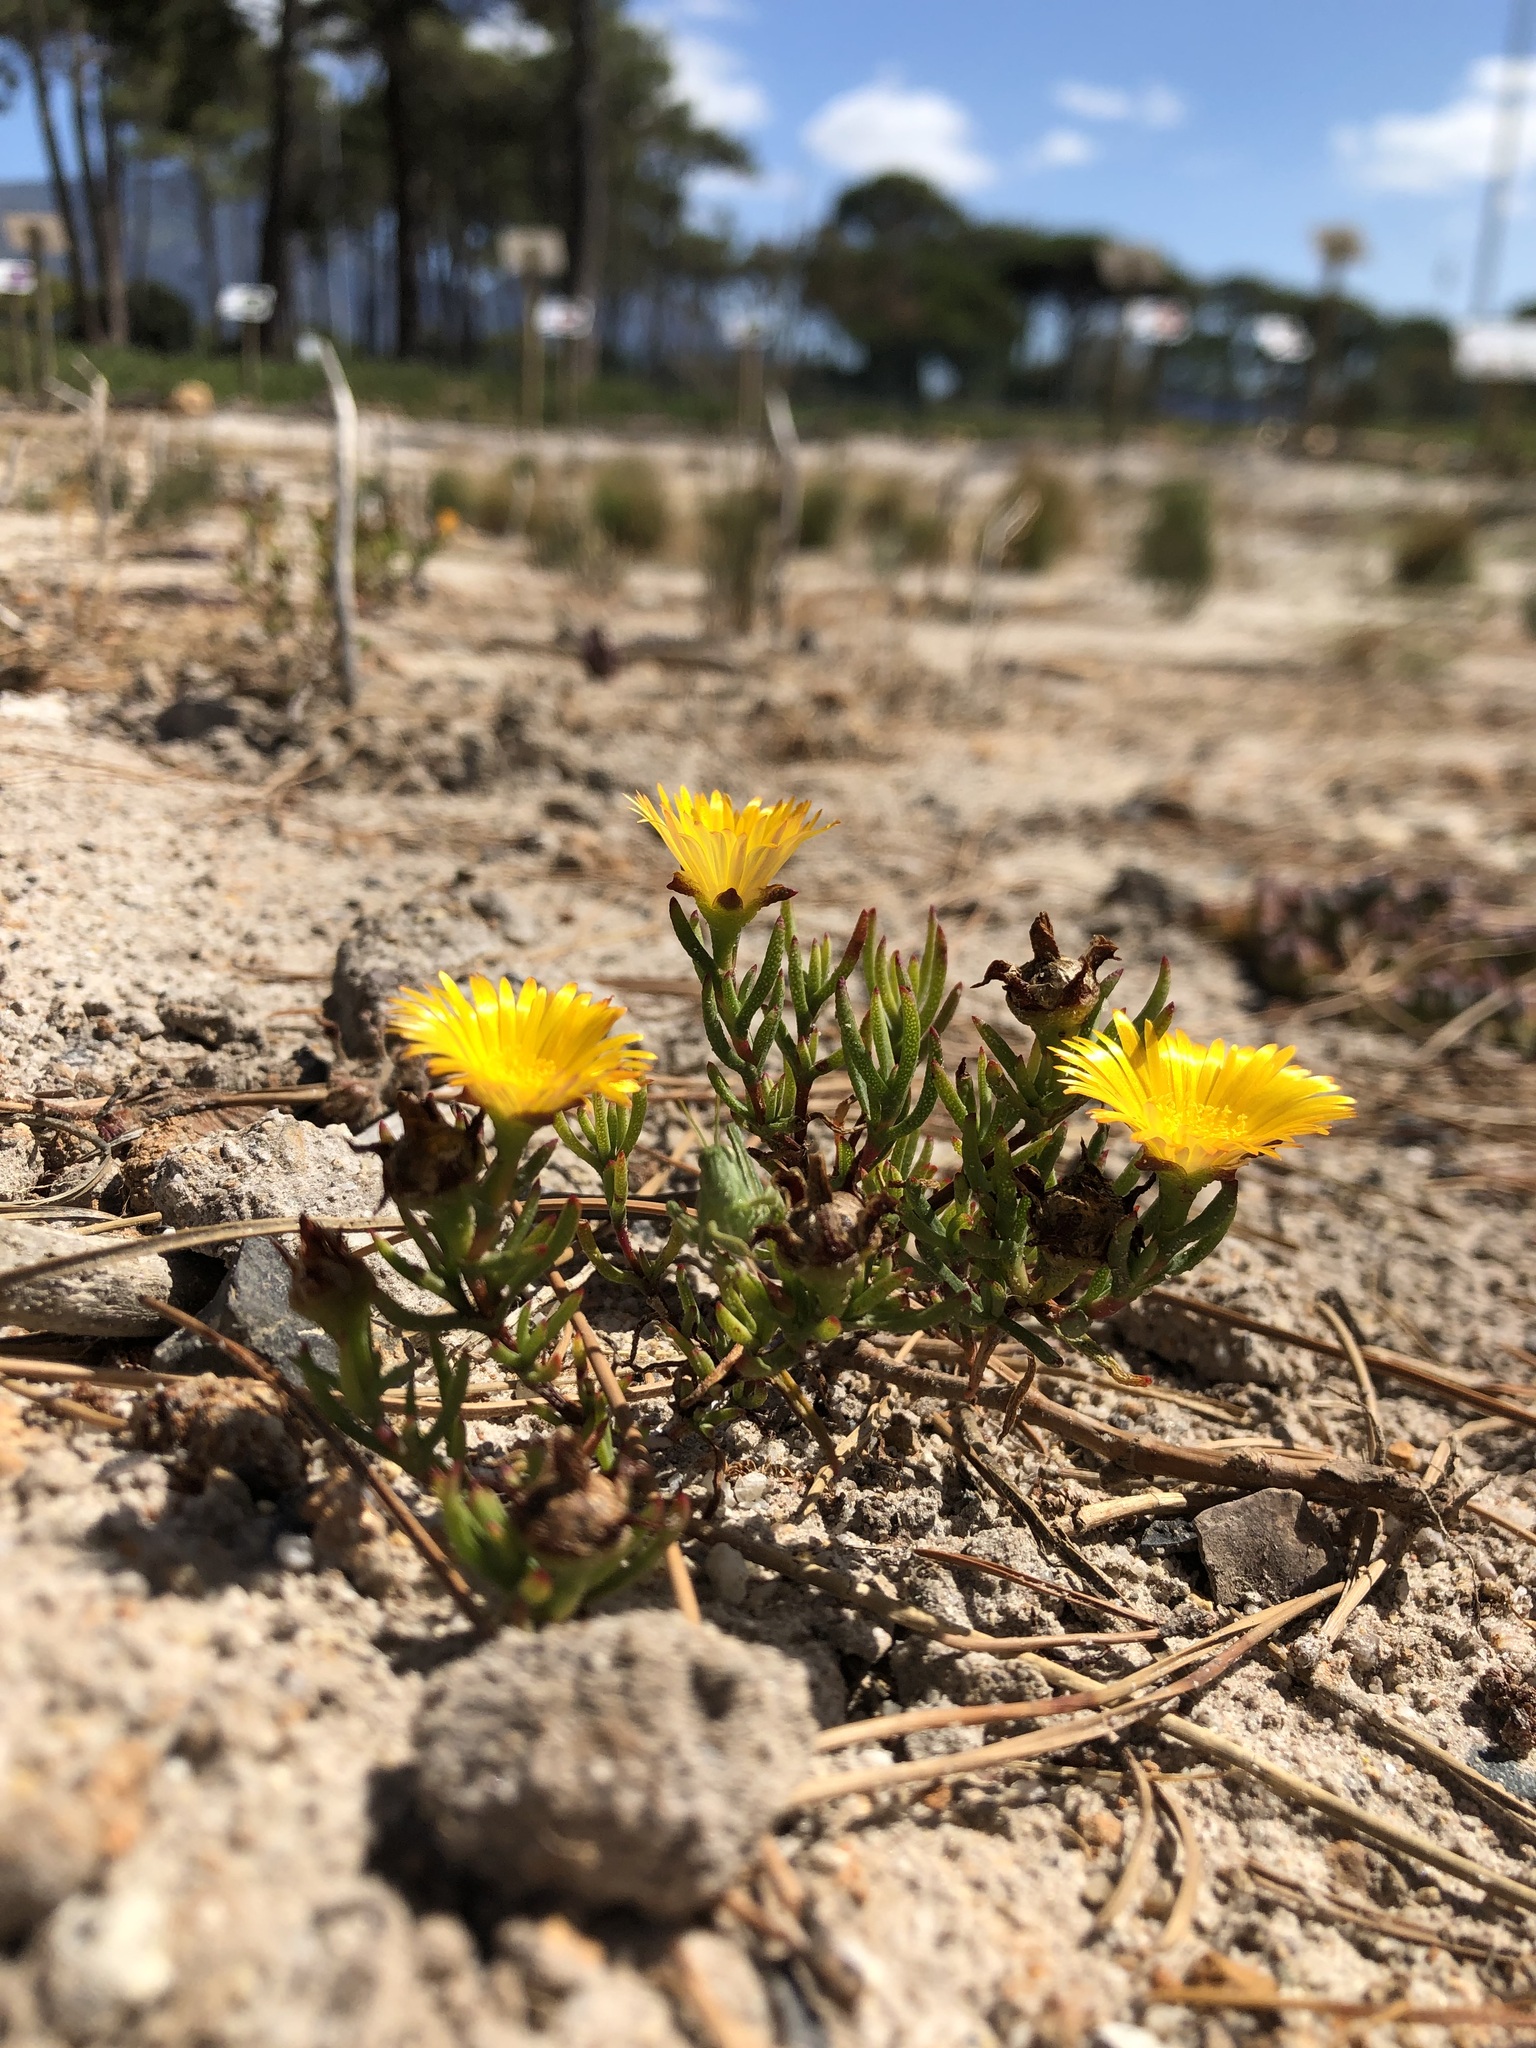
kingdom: Plantae
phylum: Tracheophyta
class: Magnoliopsida
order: Caryophyllales
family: Aizoaceae
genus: Lampranthus
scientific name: Lampranthus bicolor
